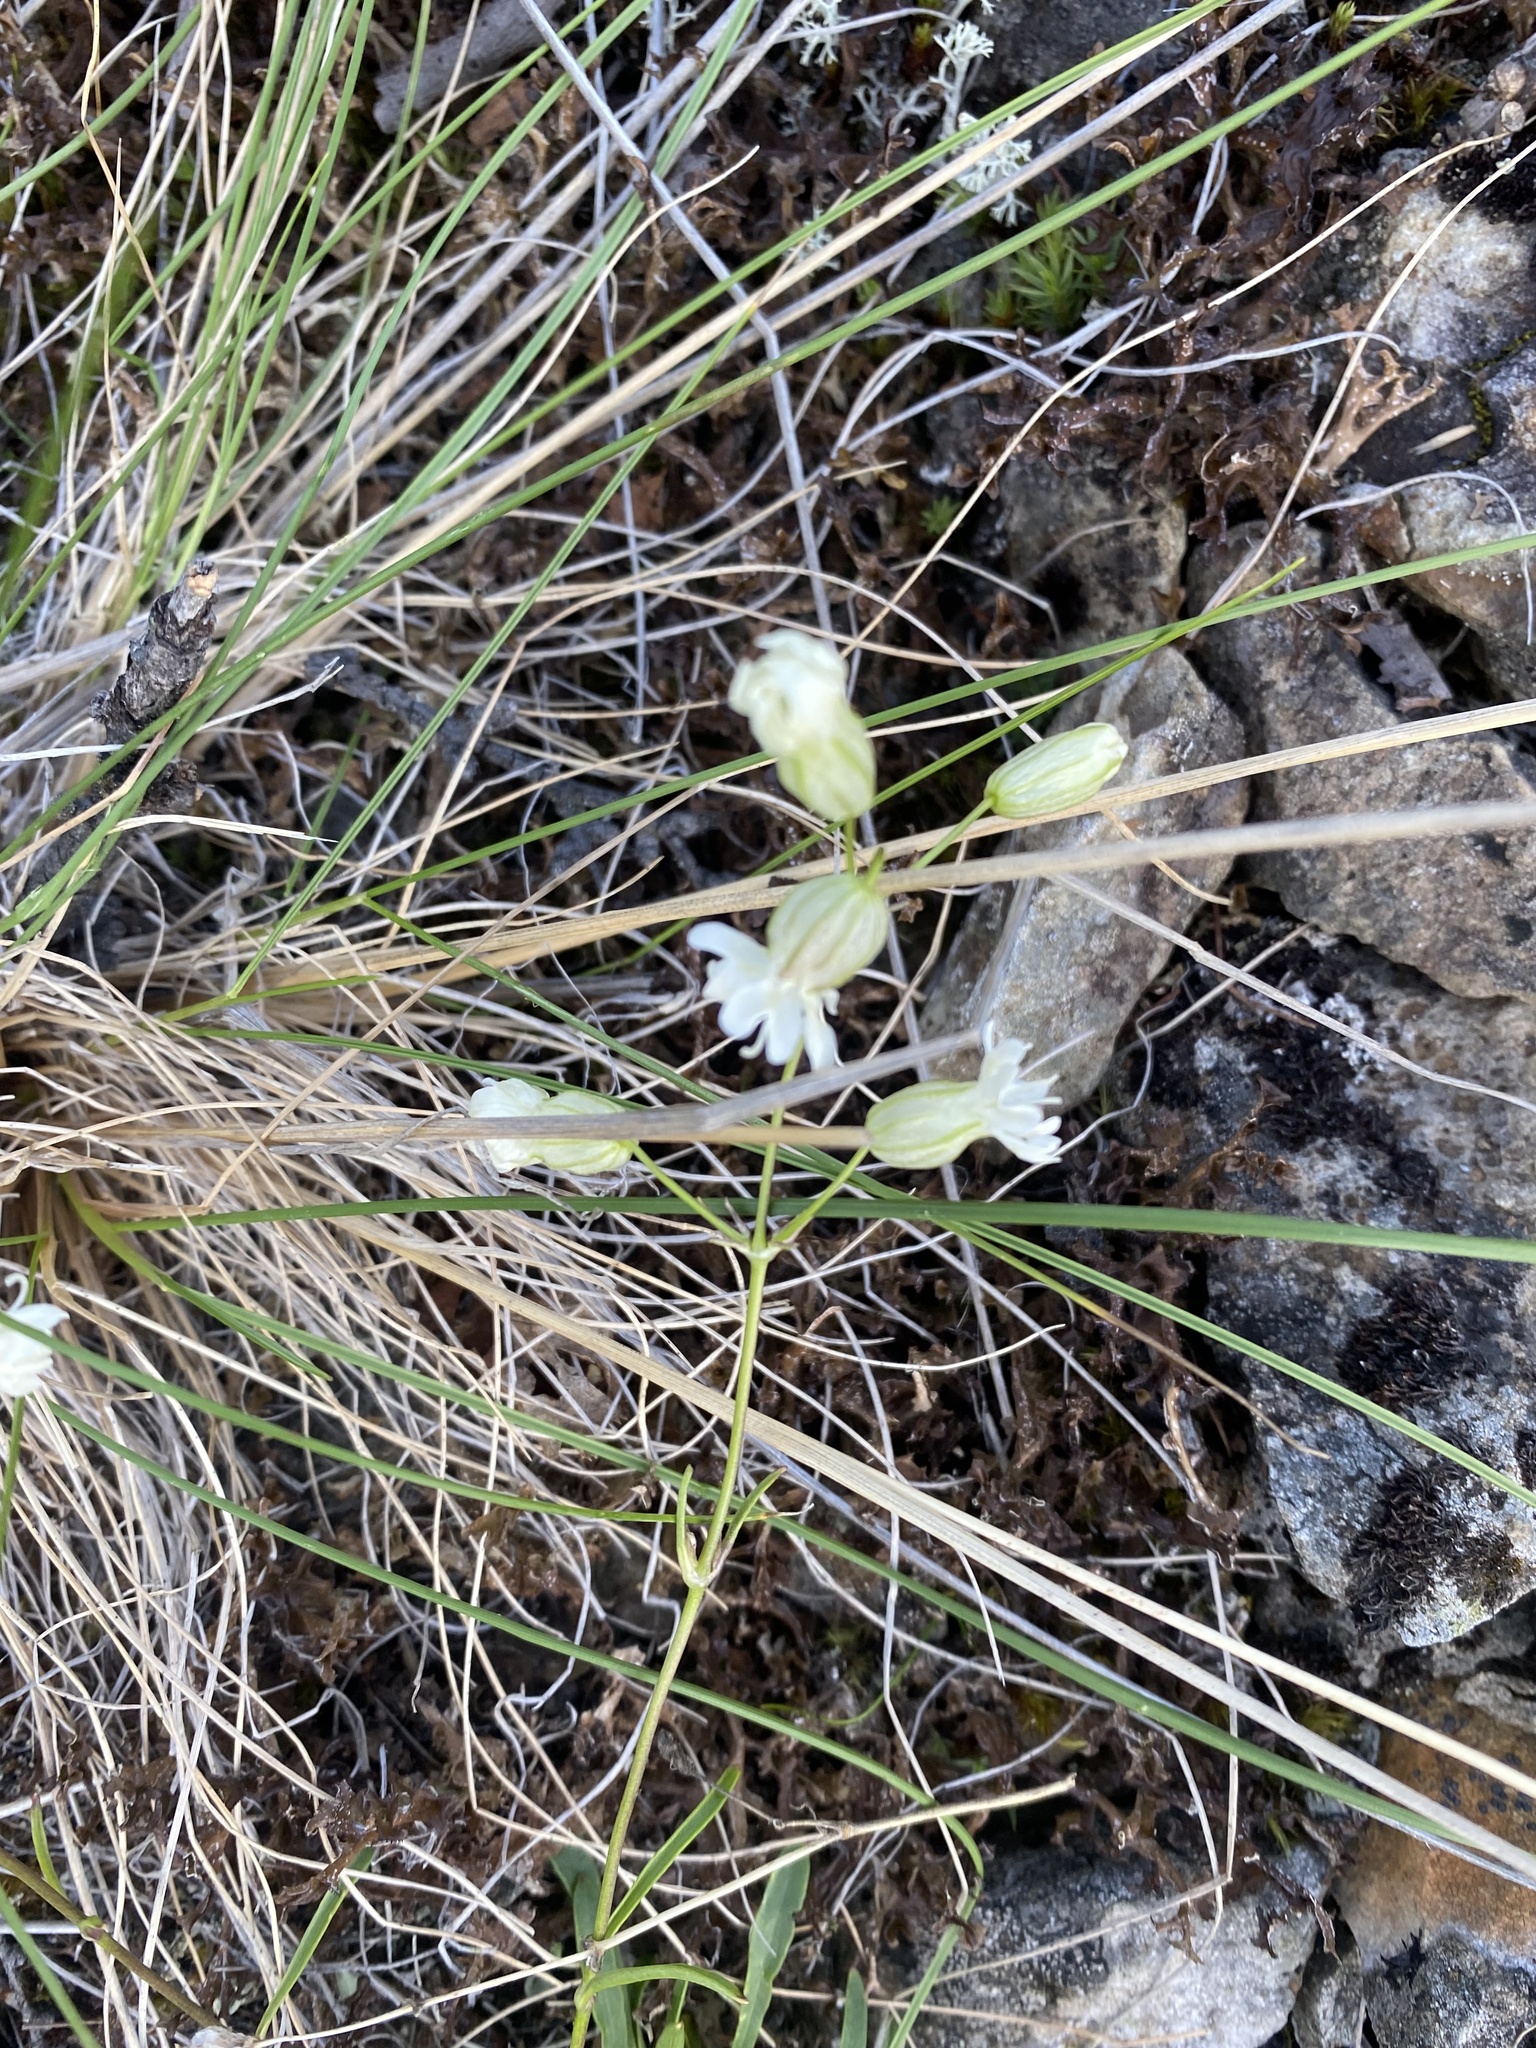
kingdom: Plantae
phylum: Tracheophyta
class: Magnoliopsida
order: Caryophyllales
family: Caryophyllaceae
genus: Silene
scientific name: Silene chamarensis
